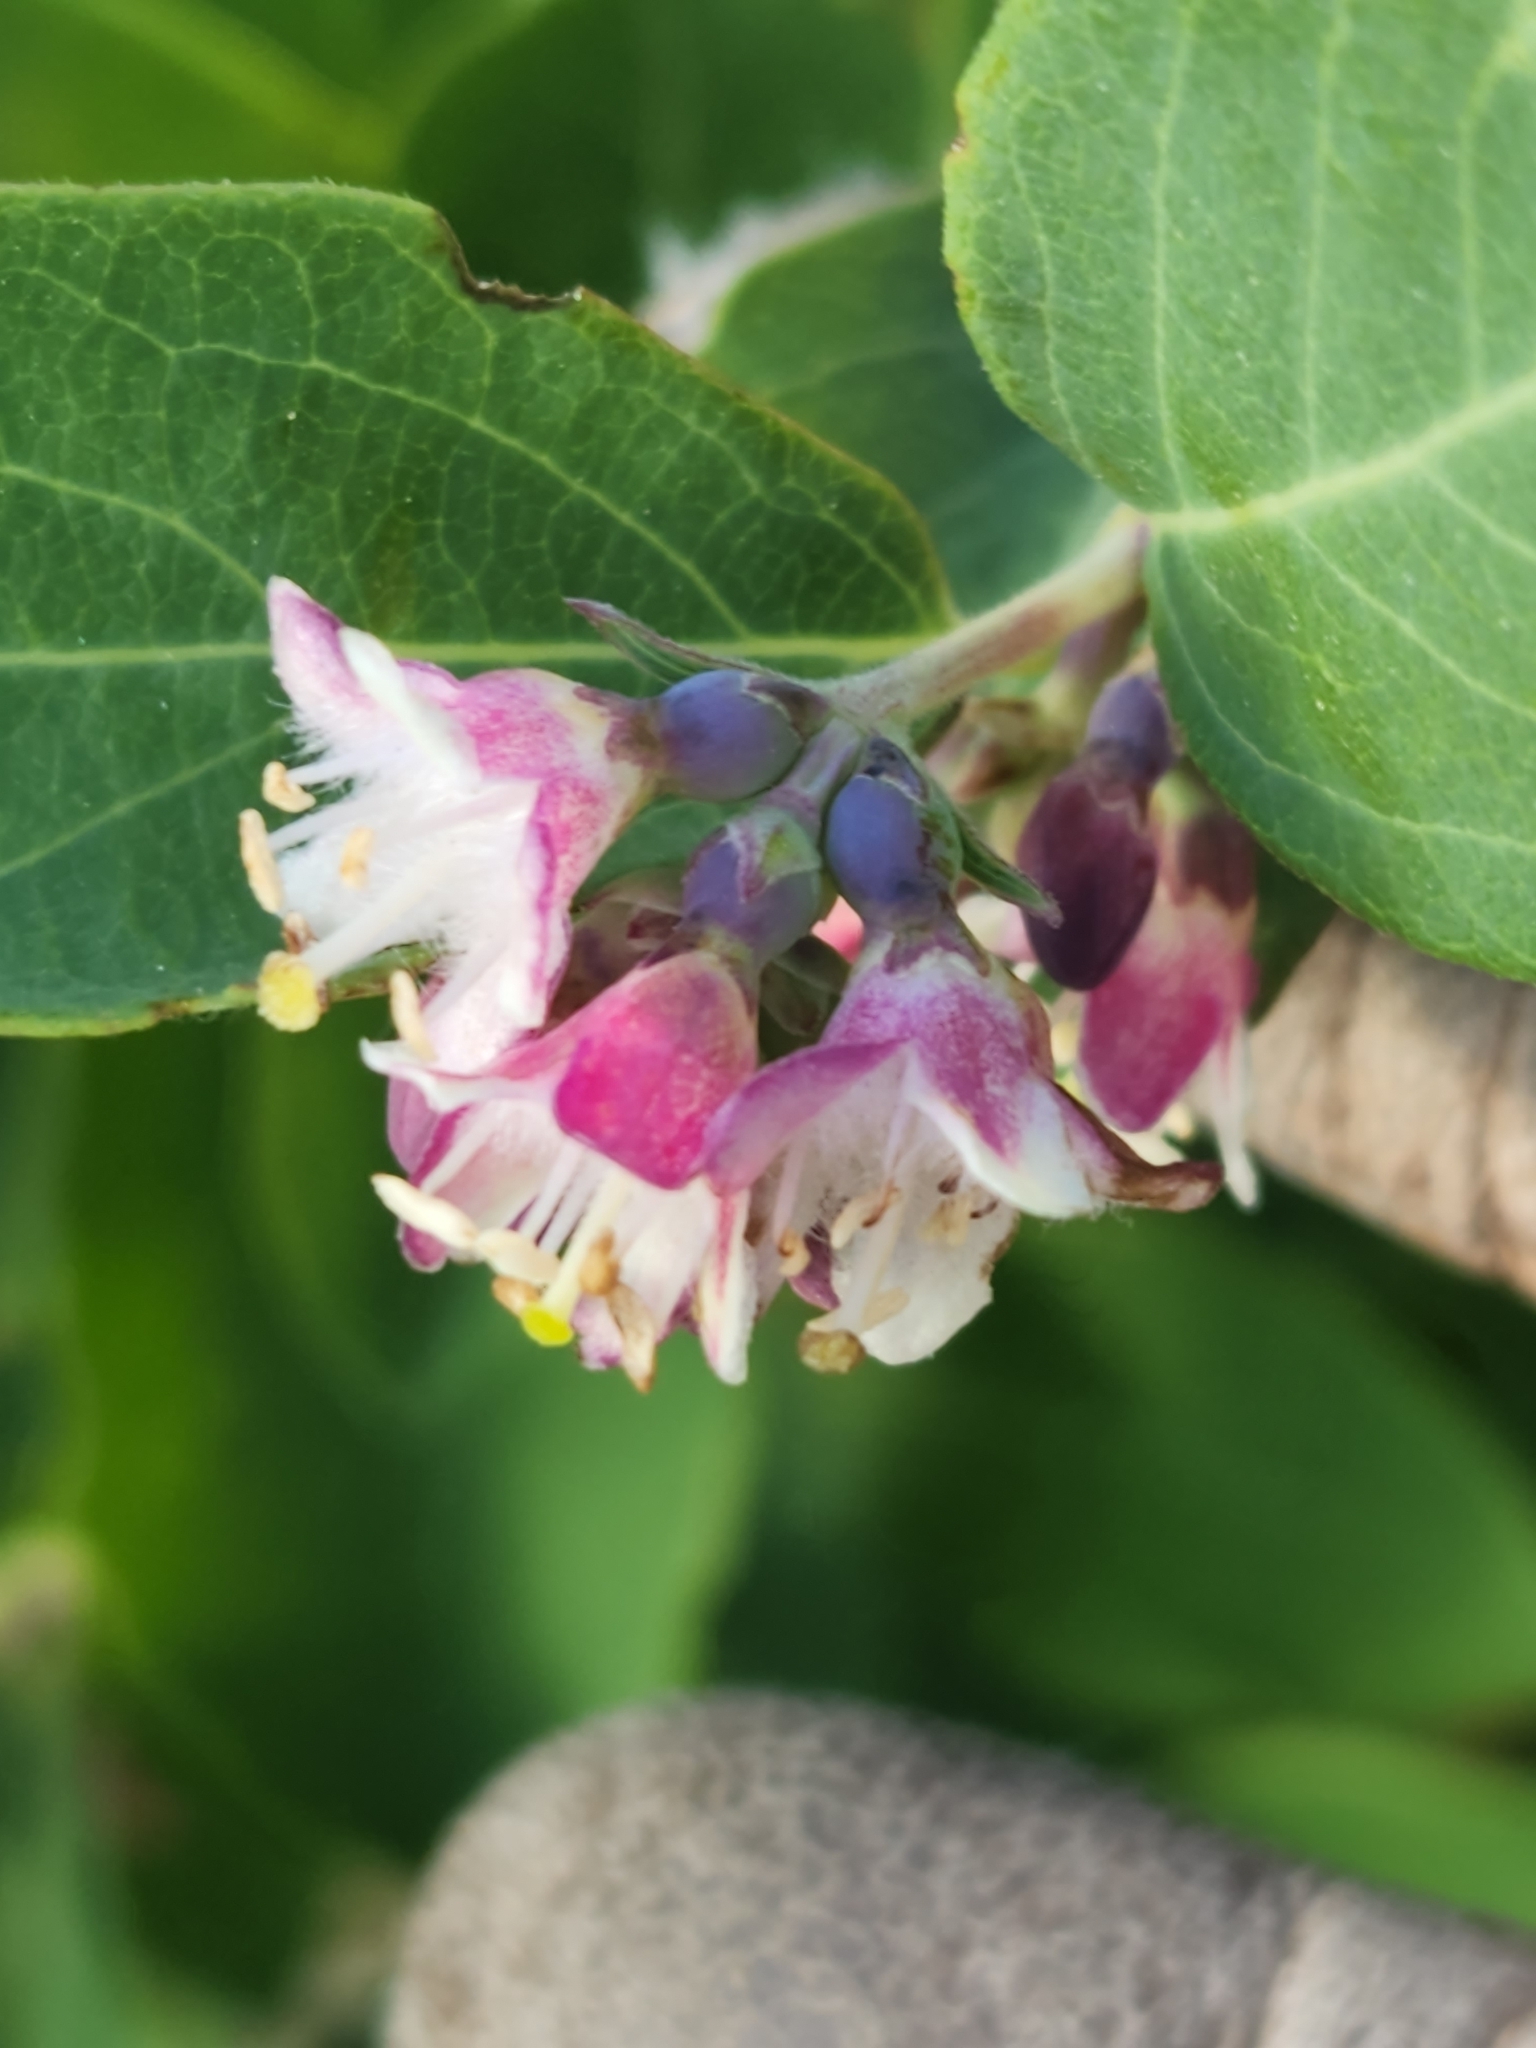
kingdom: Plantae
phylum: Tracheophyta
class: Magnoliopsida
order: Dipsacales
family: Caprifoliaceae
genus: Symphoricarpos
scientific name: Symphoricarpos occidentalis
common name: Wolfberry
